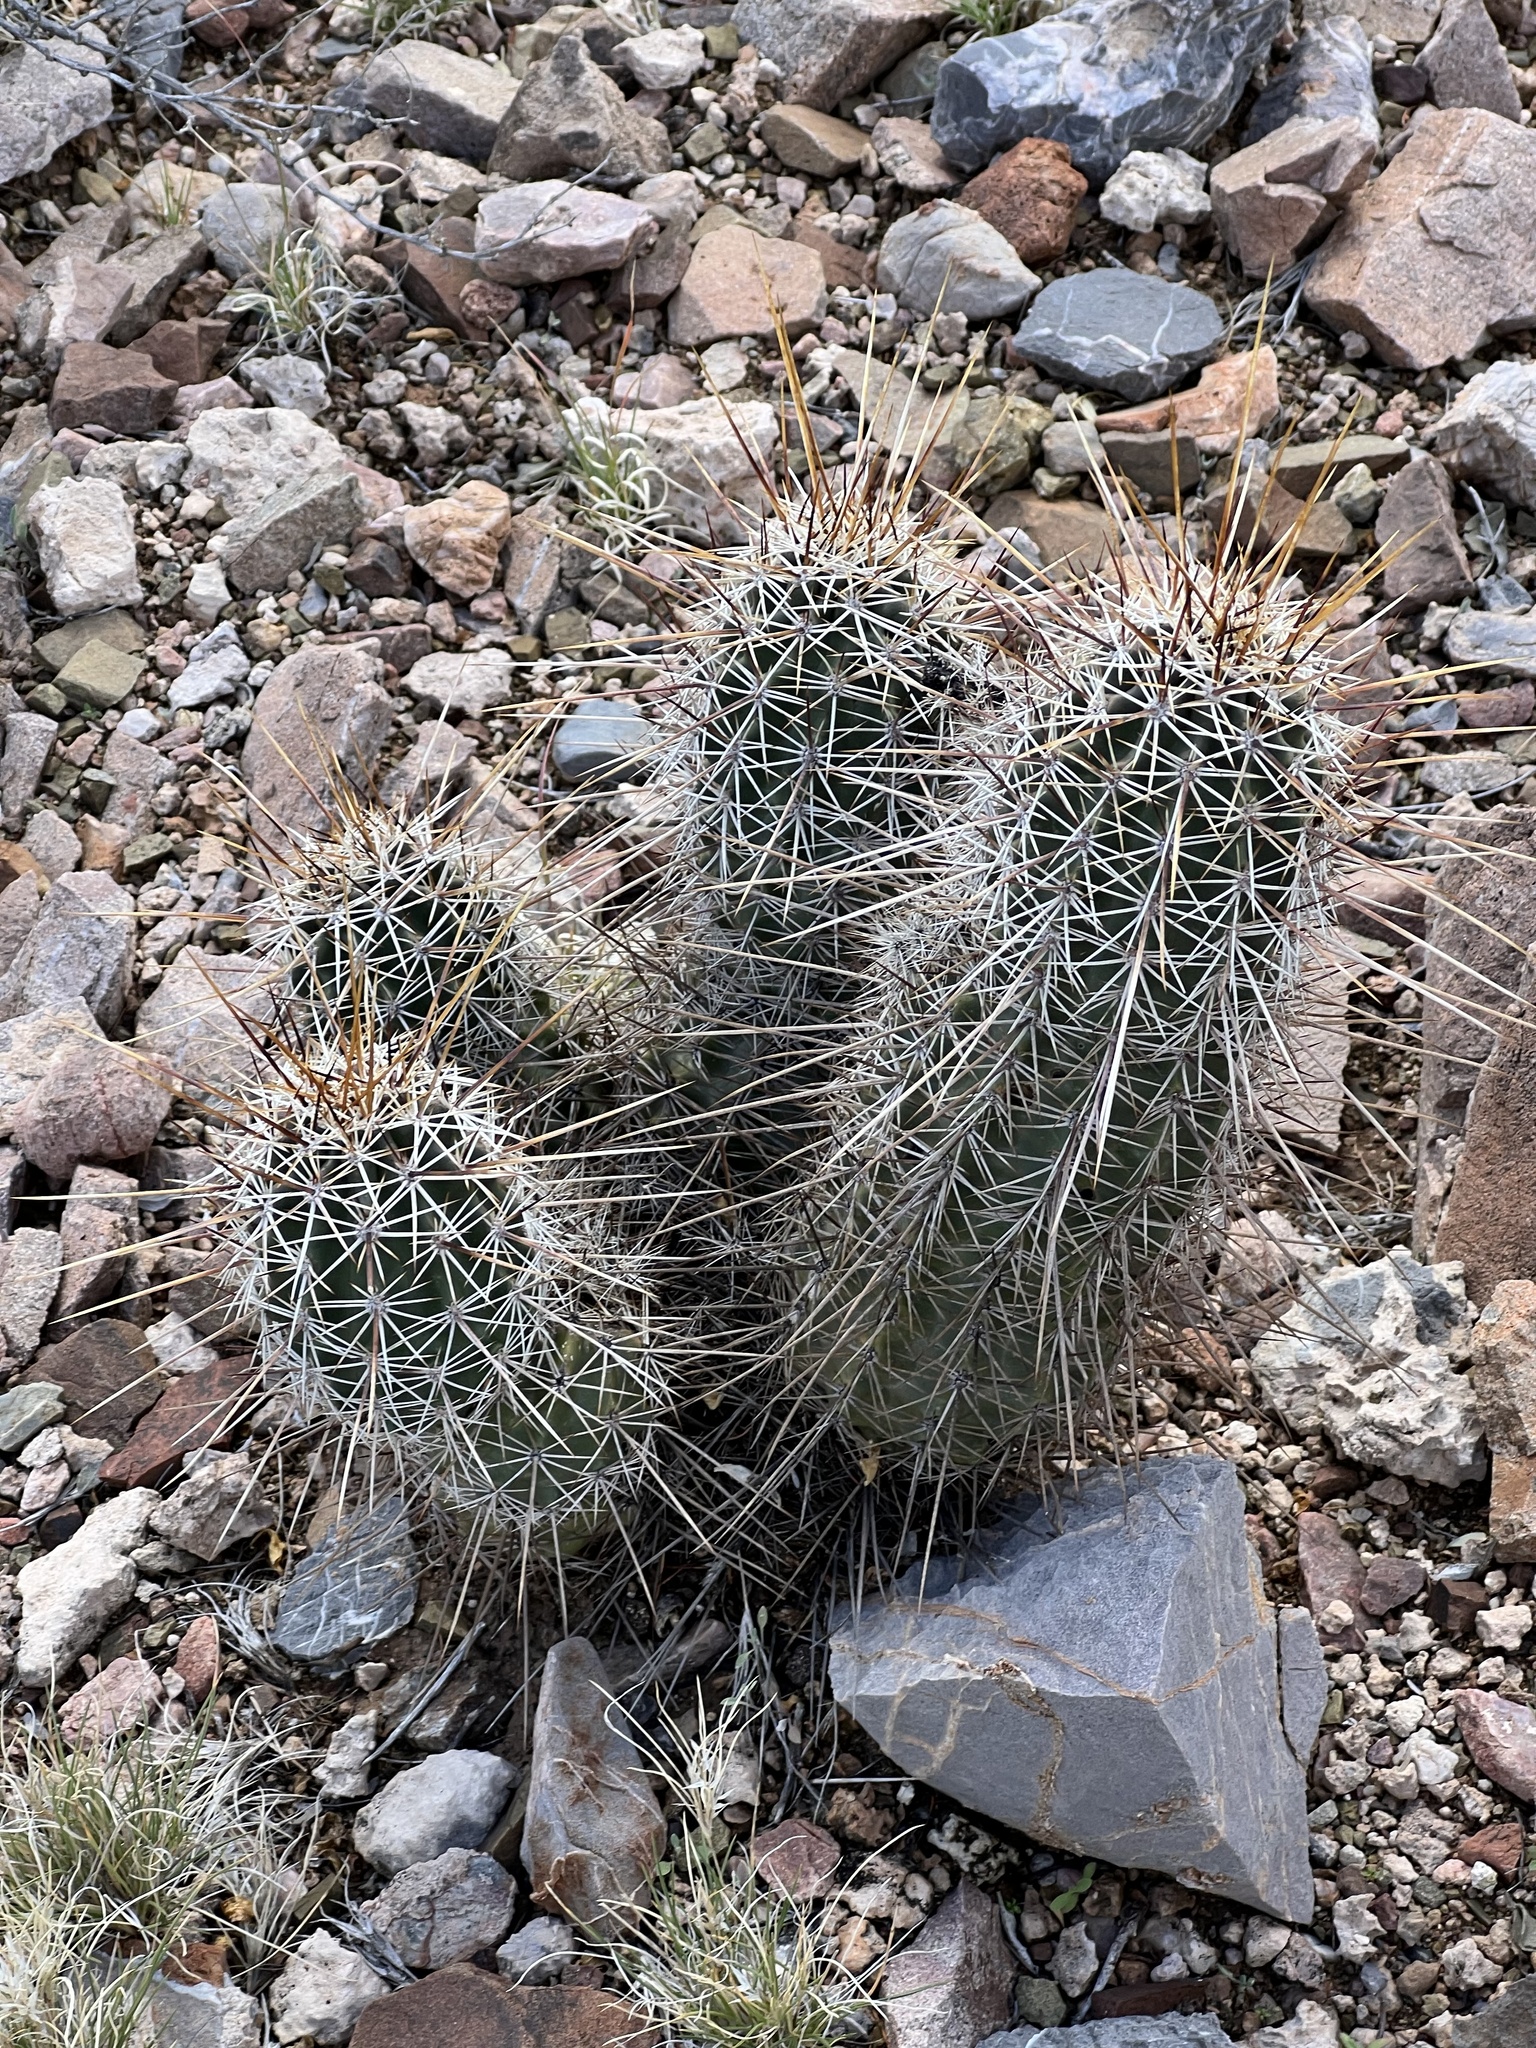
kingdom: Plantae
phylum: Tracheophyta
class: Magnoliopsida
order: Caryophyllales
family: Cactaceae
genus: Echinocereus
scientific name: Echinocereus fasciculatus
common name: Bundle hedgehog
